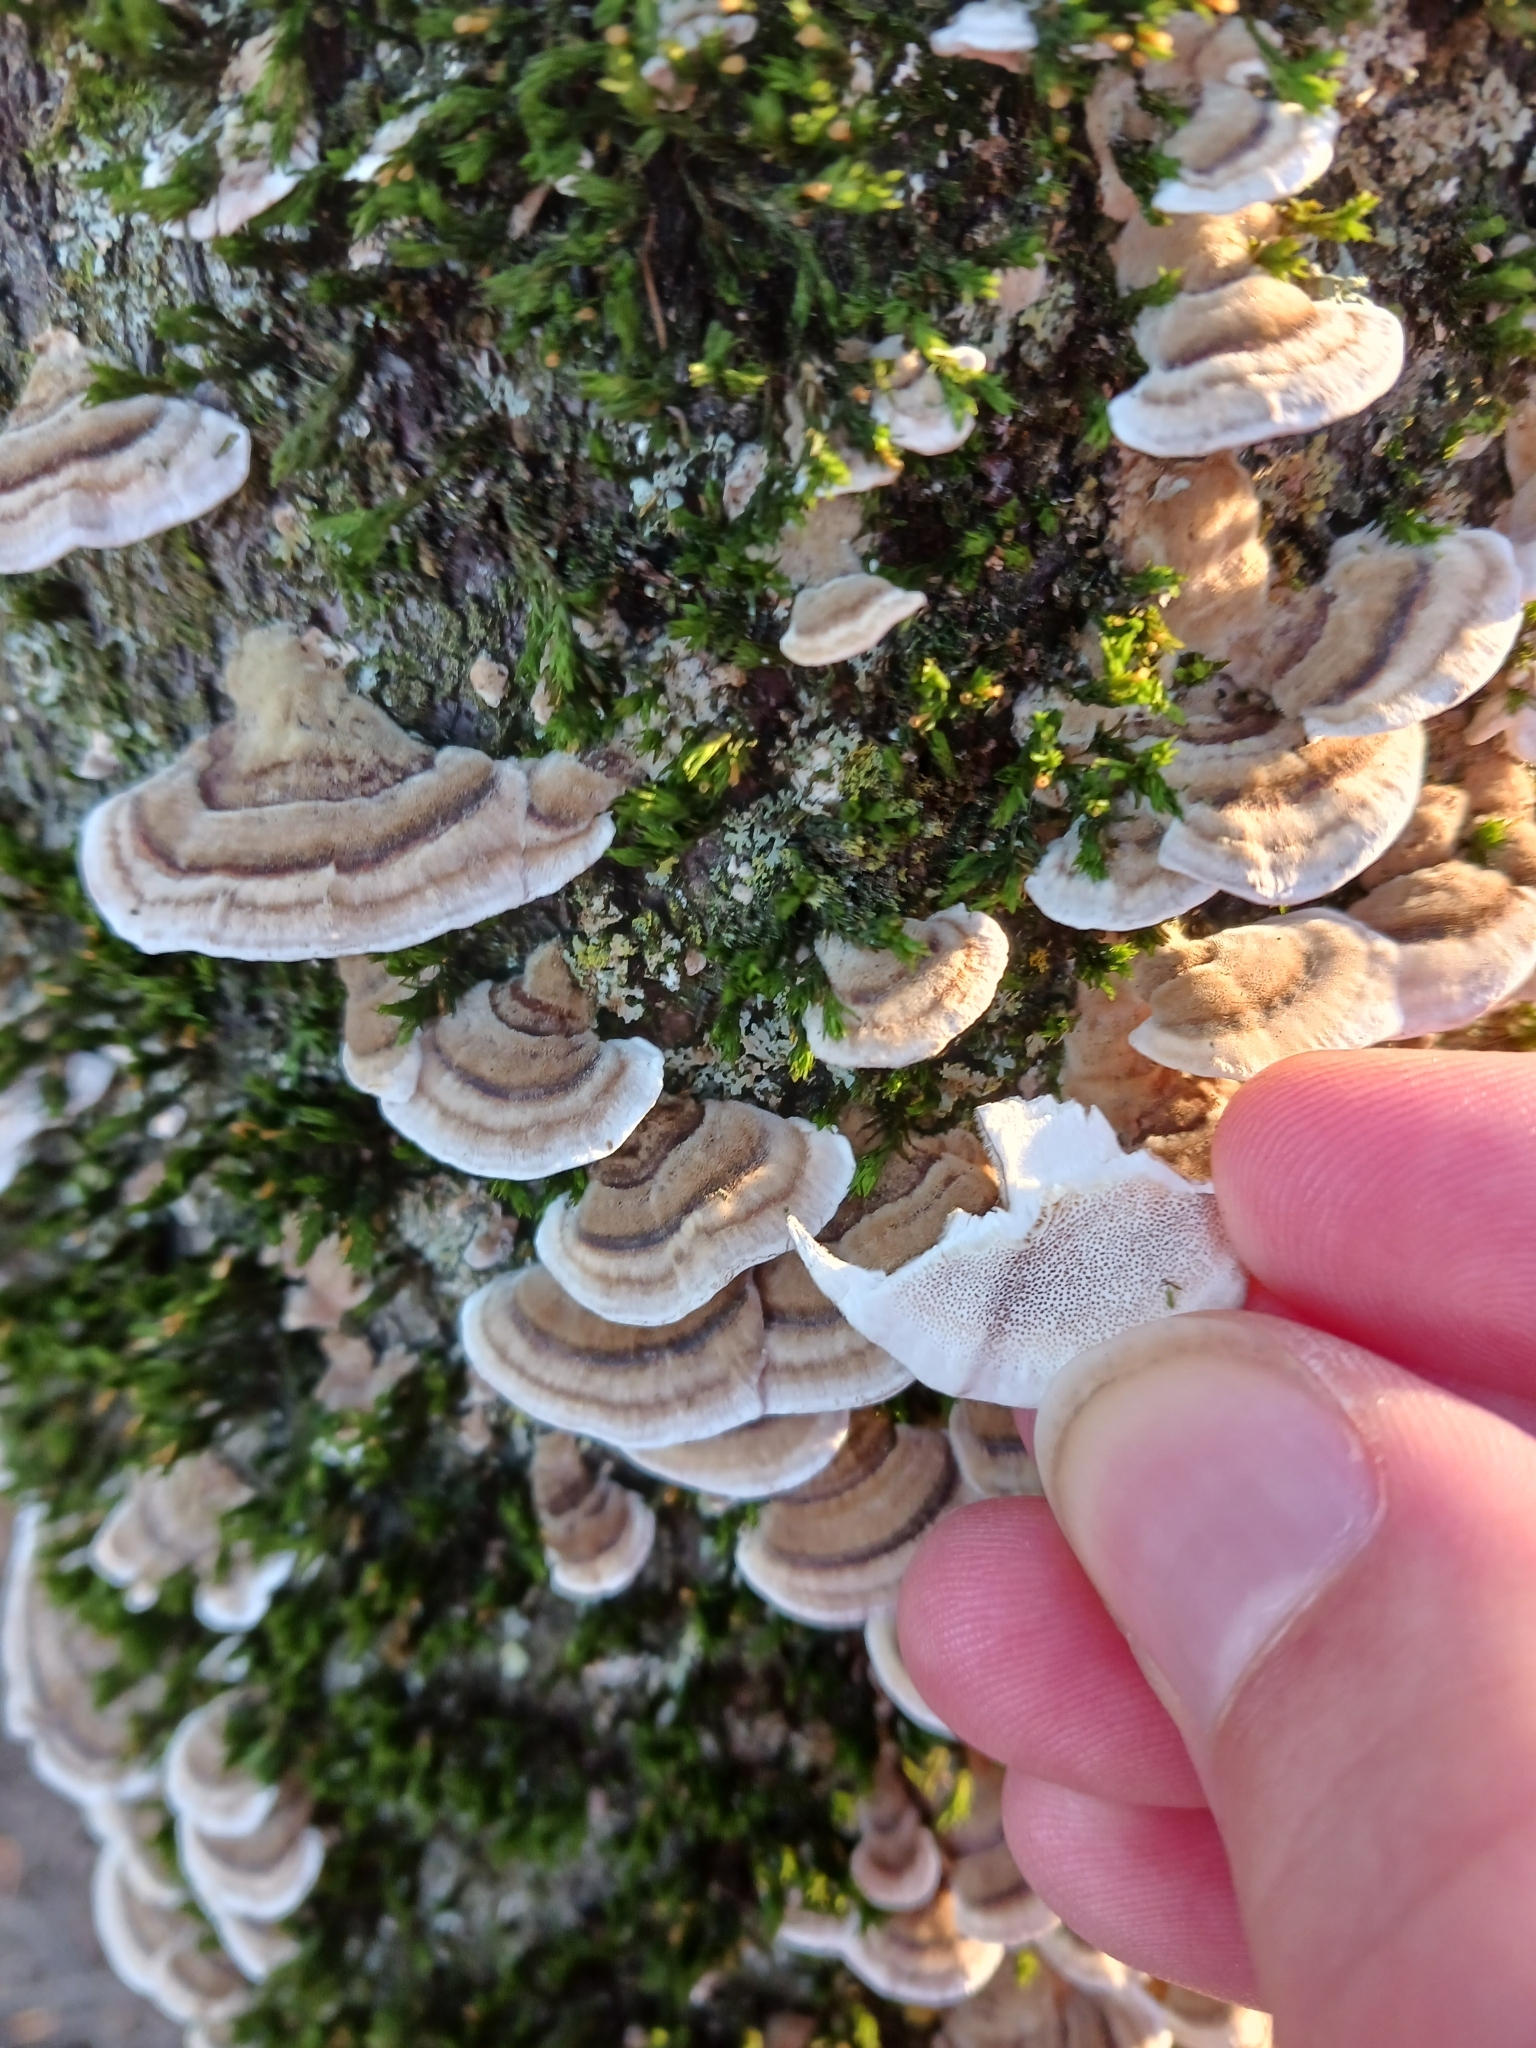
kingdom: Fungi
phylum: Basidiomycota
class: Agaricomycetes
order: Polyporales
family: Polyporaceae
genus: Trametes
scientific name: Trametes versicolor
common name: Turkeytail
